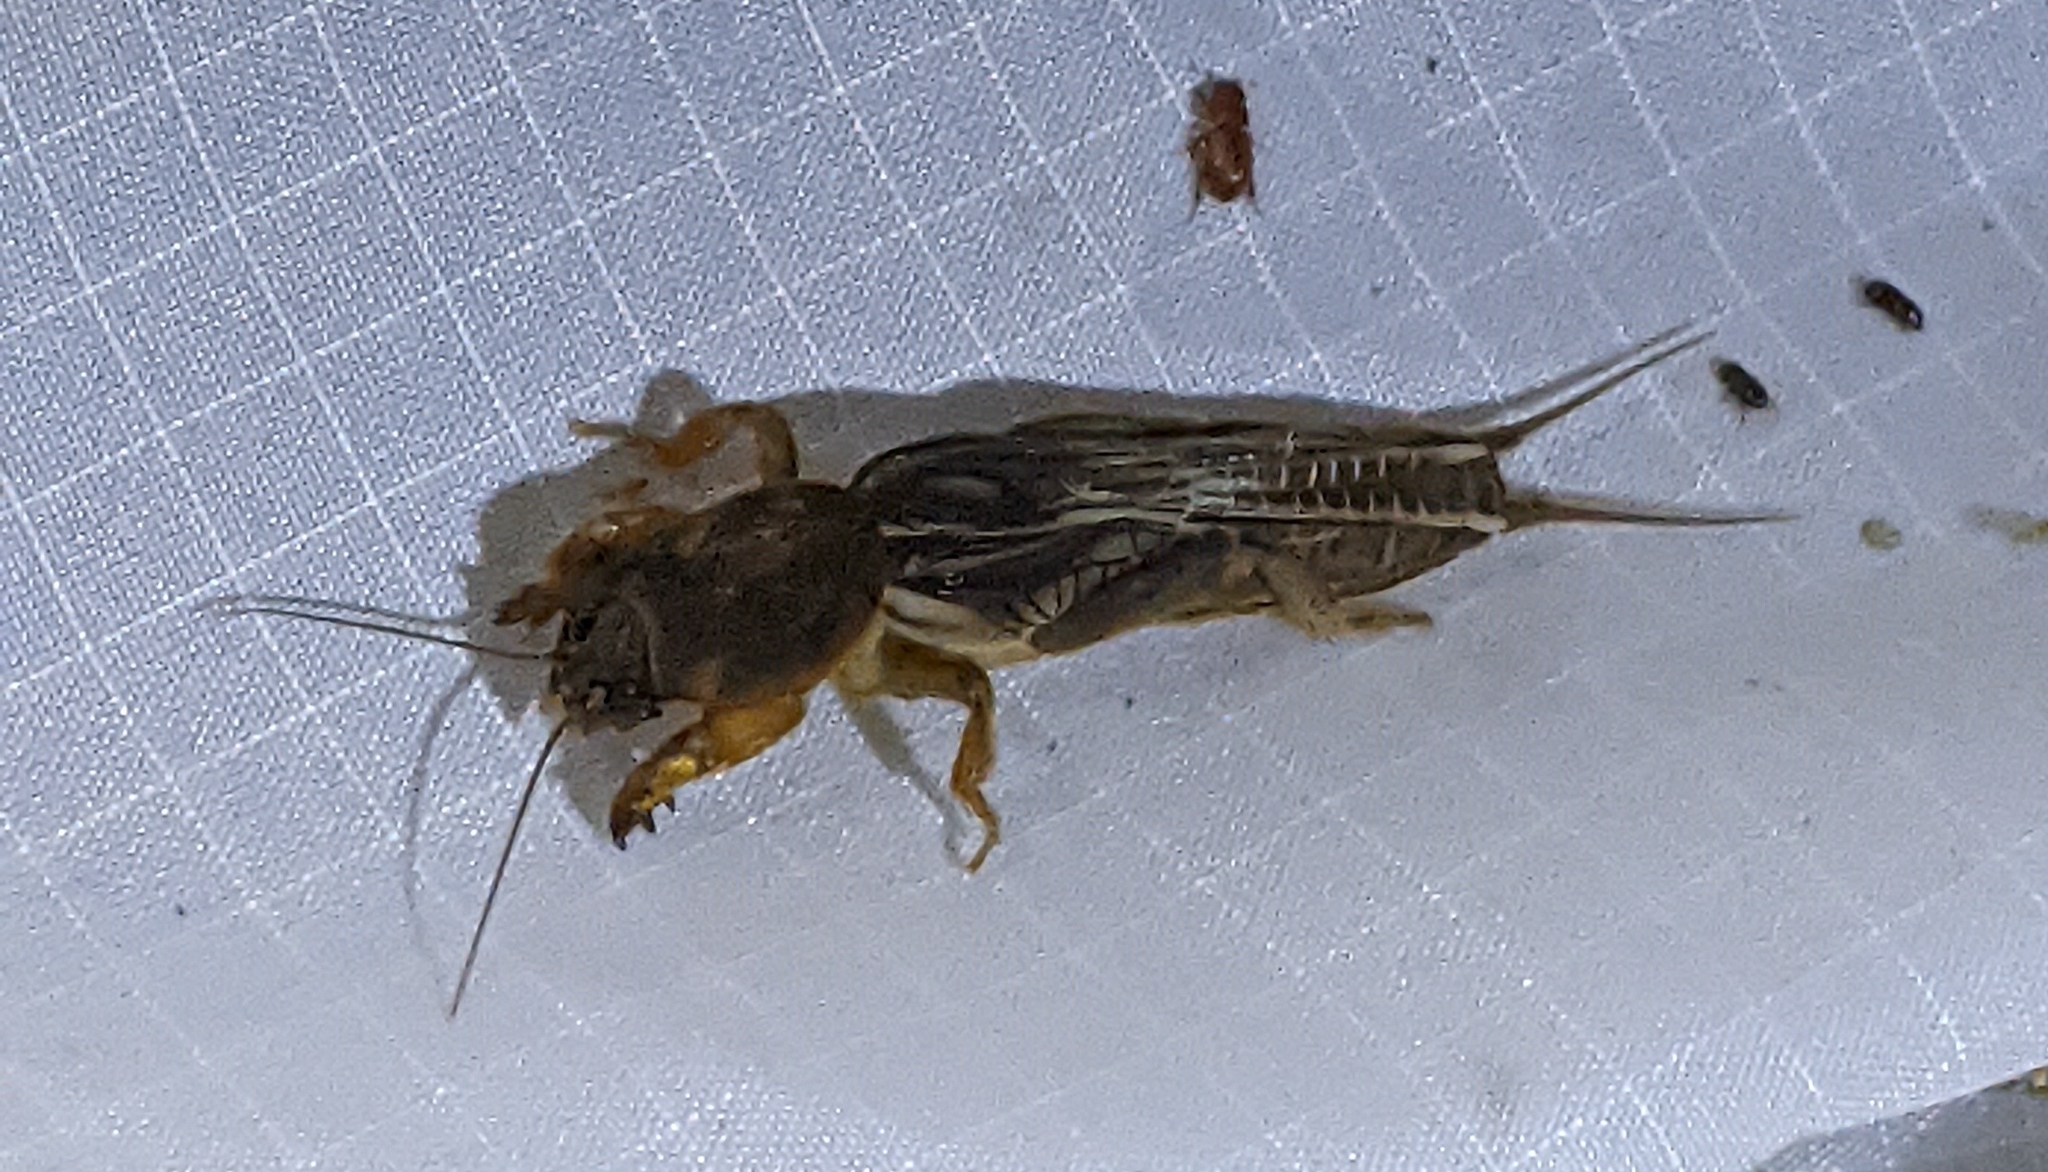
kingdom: Animalia
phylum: Arthropoda
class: Insecta
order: Orthoptera
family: Gryllotalpidae
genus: Neocurtilla
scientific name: Neocurtilla hexadactyla
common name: Northern mole cricket
